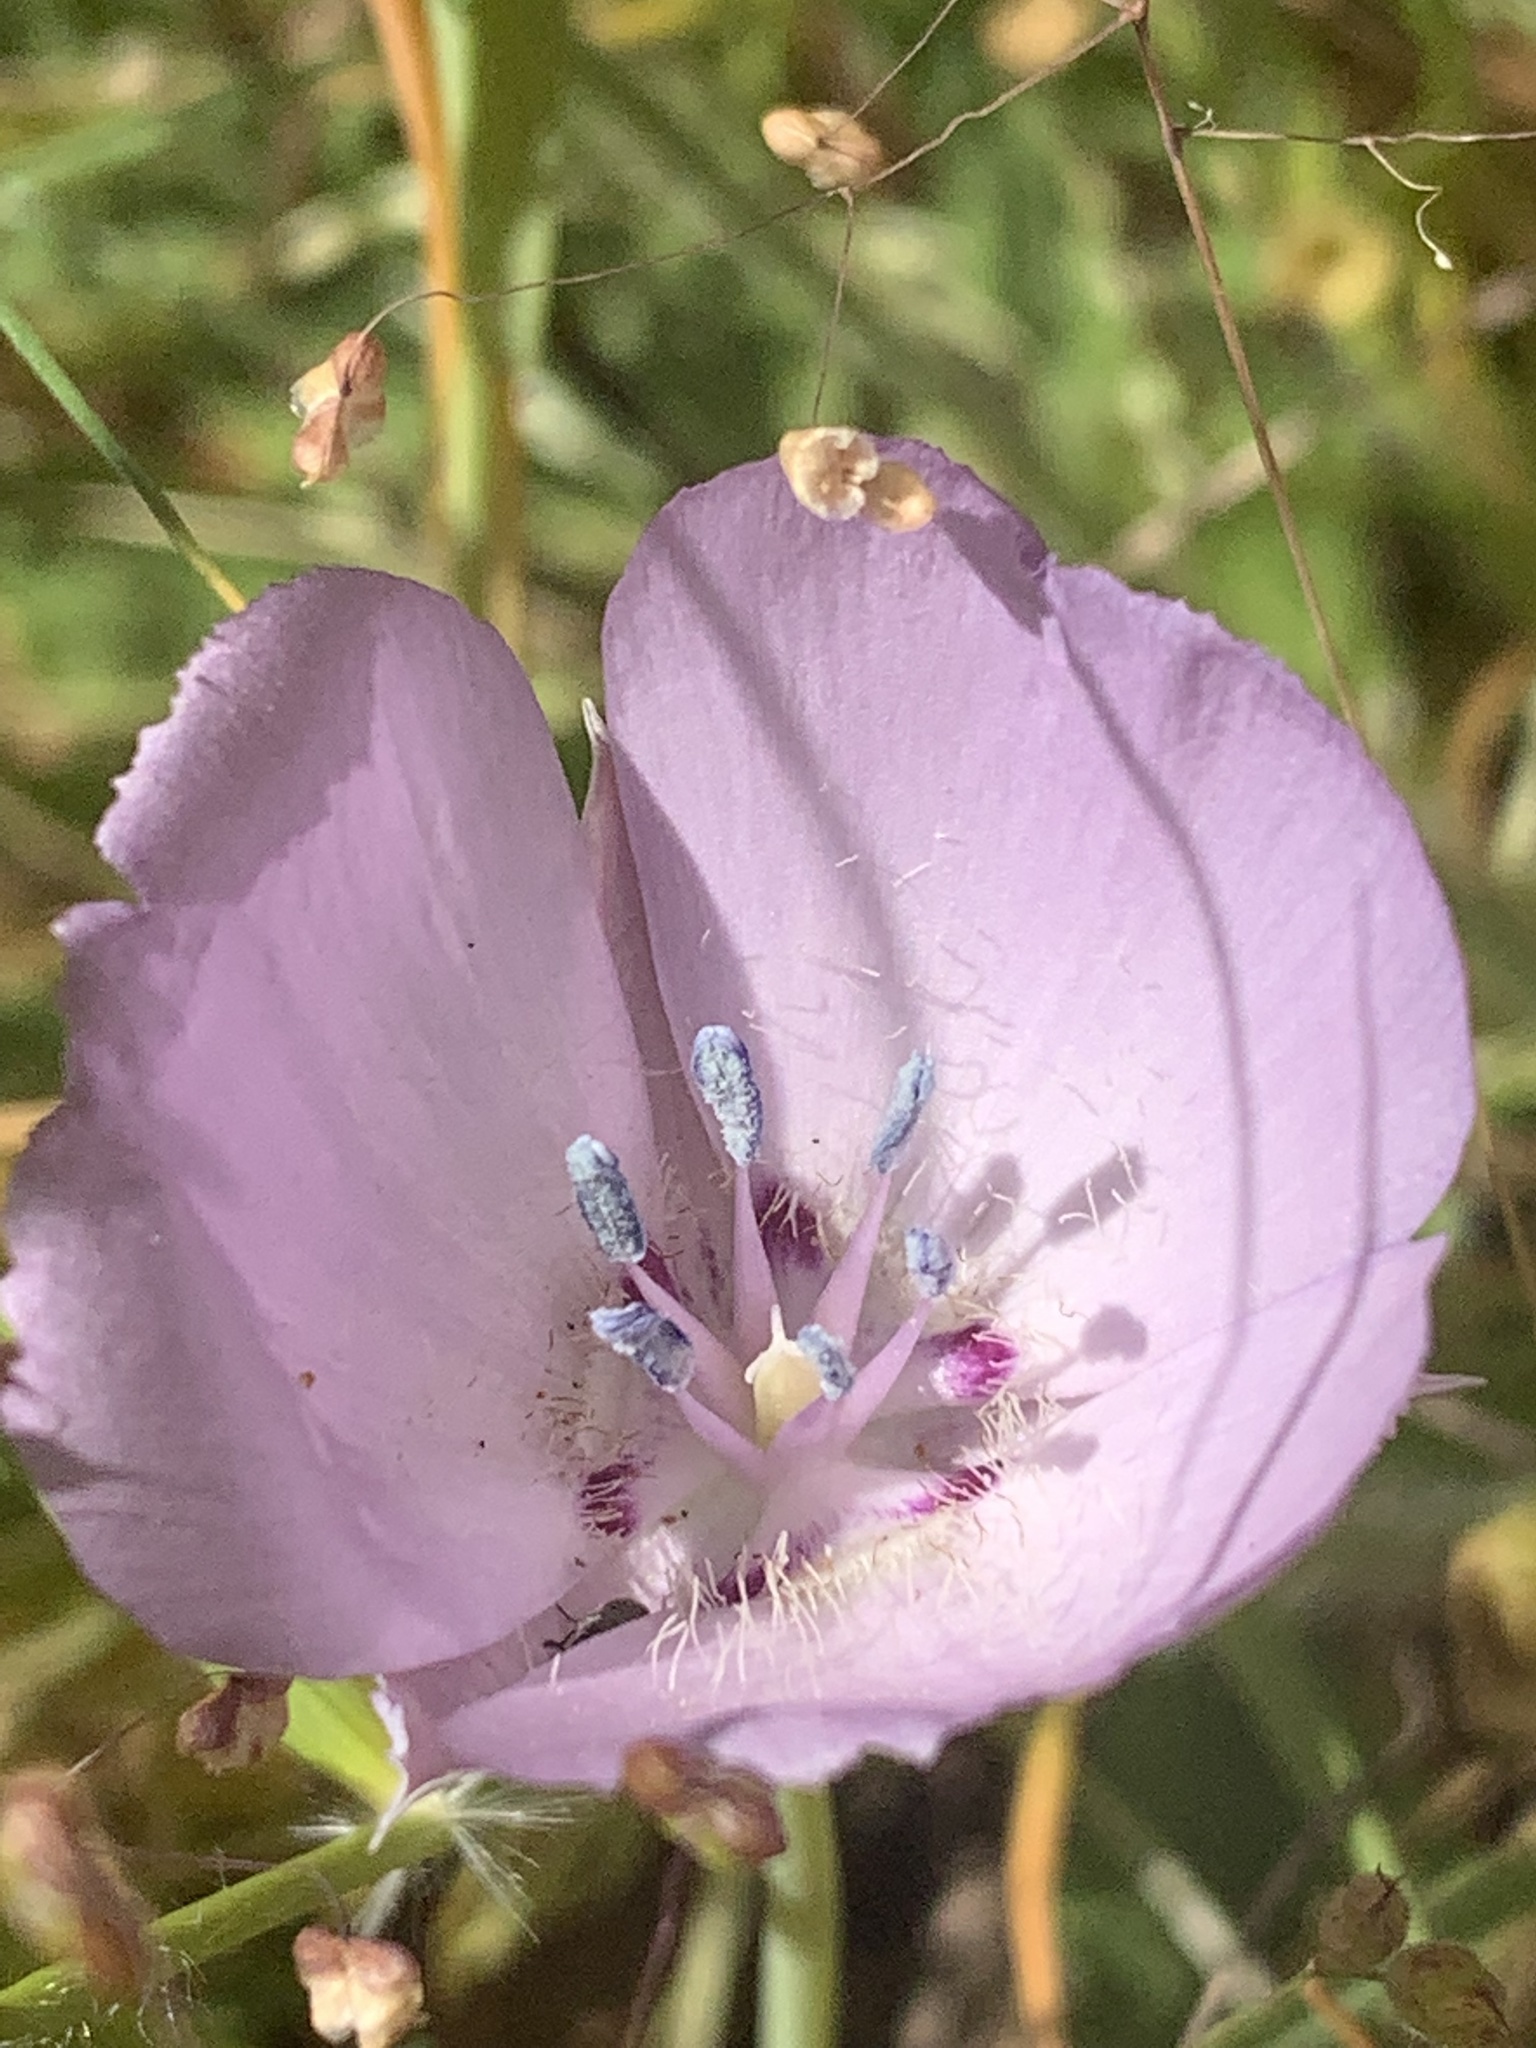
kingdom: Plantae
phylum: Tracheophyta
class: Liliopsida
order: Liliales
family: Liliaceae
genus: Calochortus
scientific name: Calochortus uniflorus
